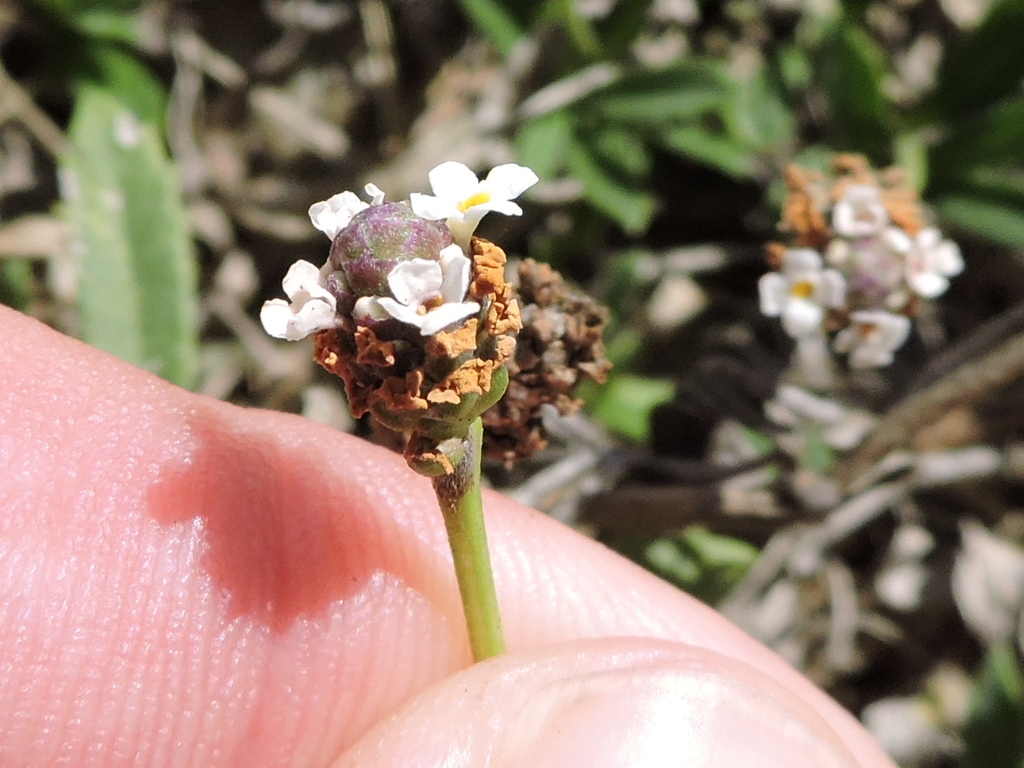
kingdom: Plantae
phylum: Tracheophyta
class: Magnoliopsida
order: Lamiales
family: Verbenaceae
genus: Phyla
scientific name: Phyla nodiflora
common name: Frogfruit
